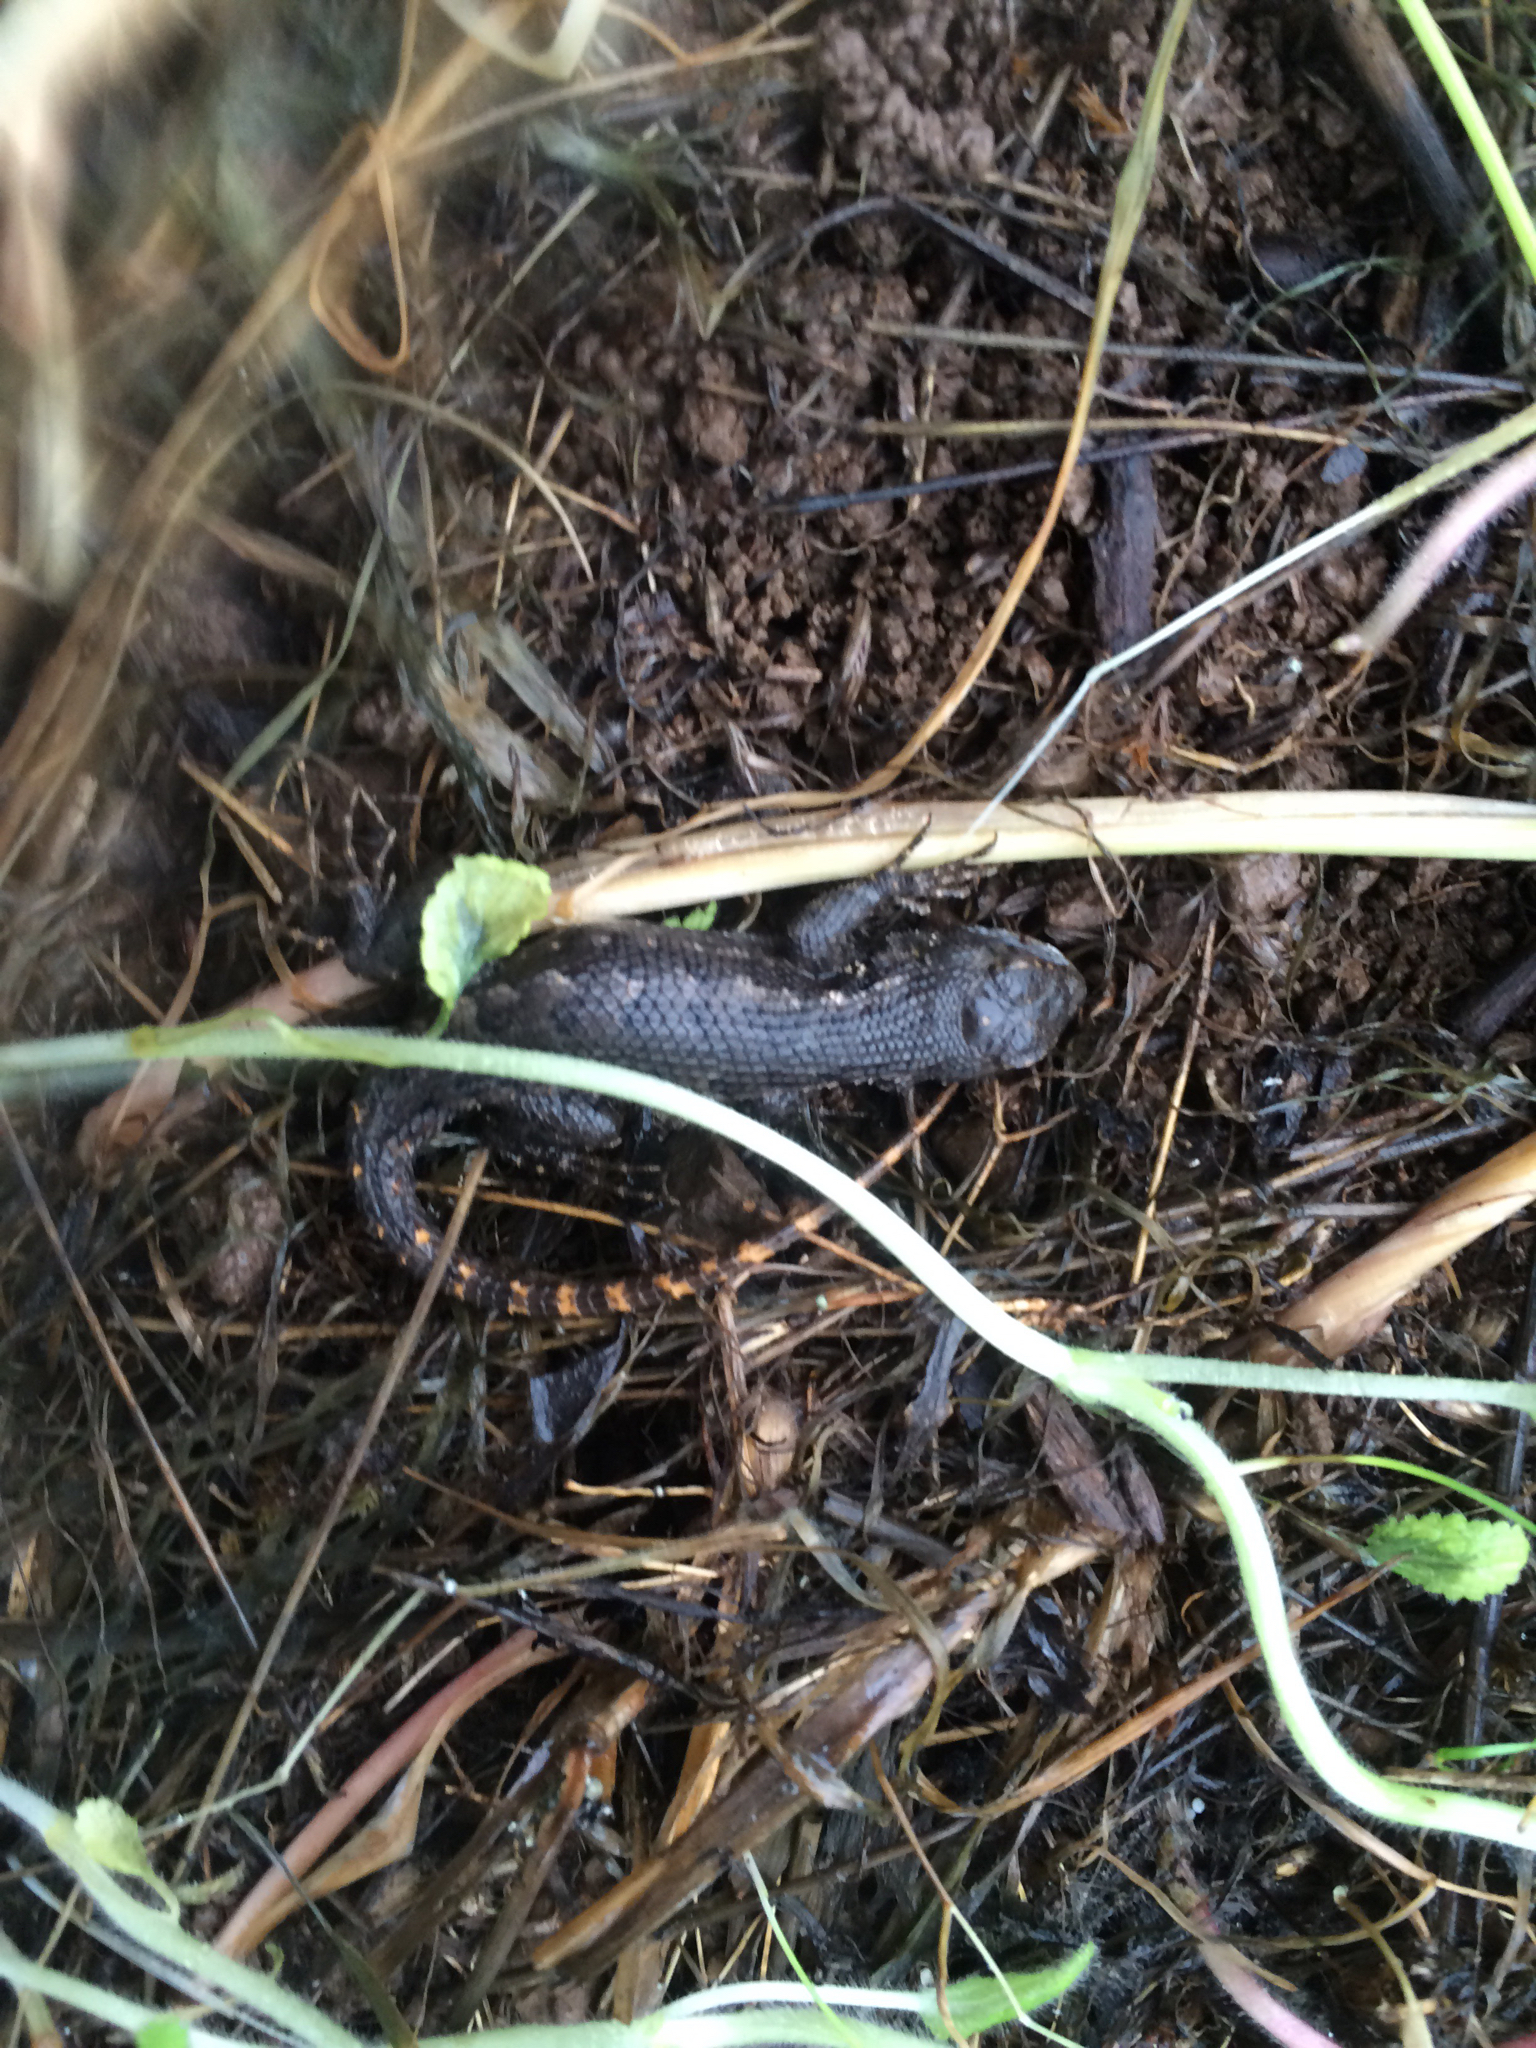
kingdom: Animalia
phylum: Chordata
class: Squamata
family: Phrynosomatidae
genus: Sceloporus
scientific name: Sceloporus occidentalis
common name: Western fence lizard
